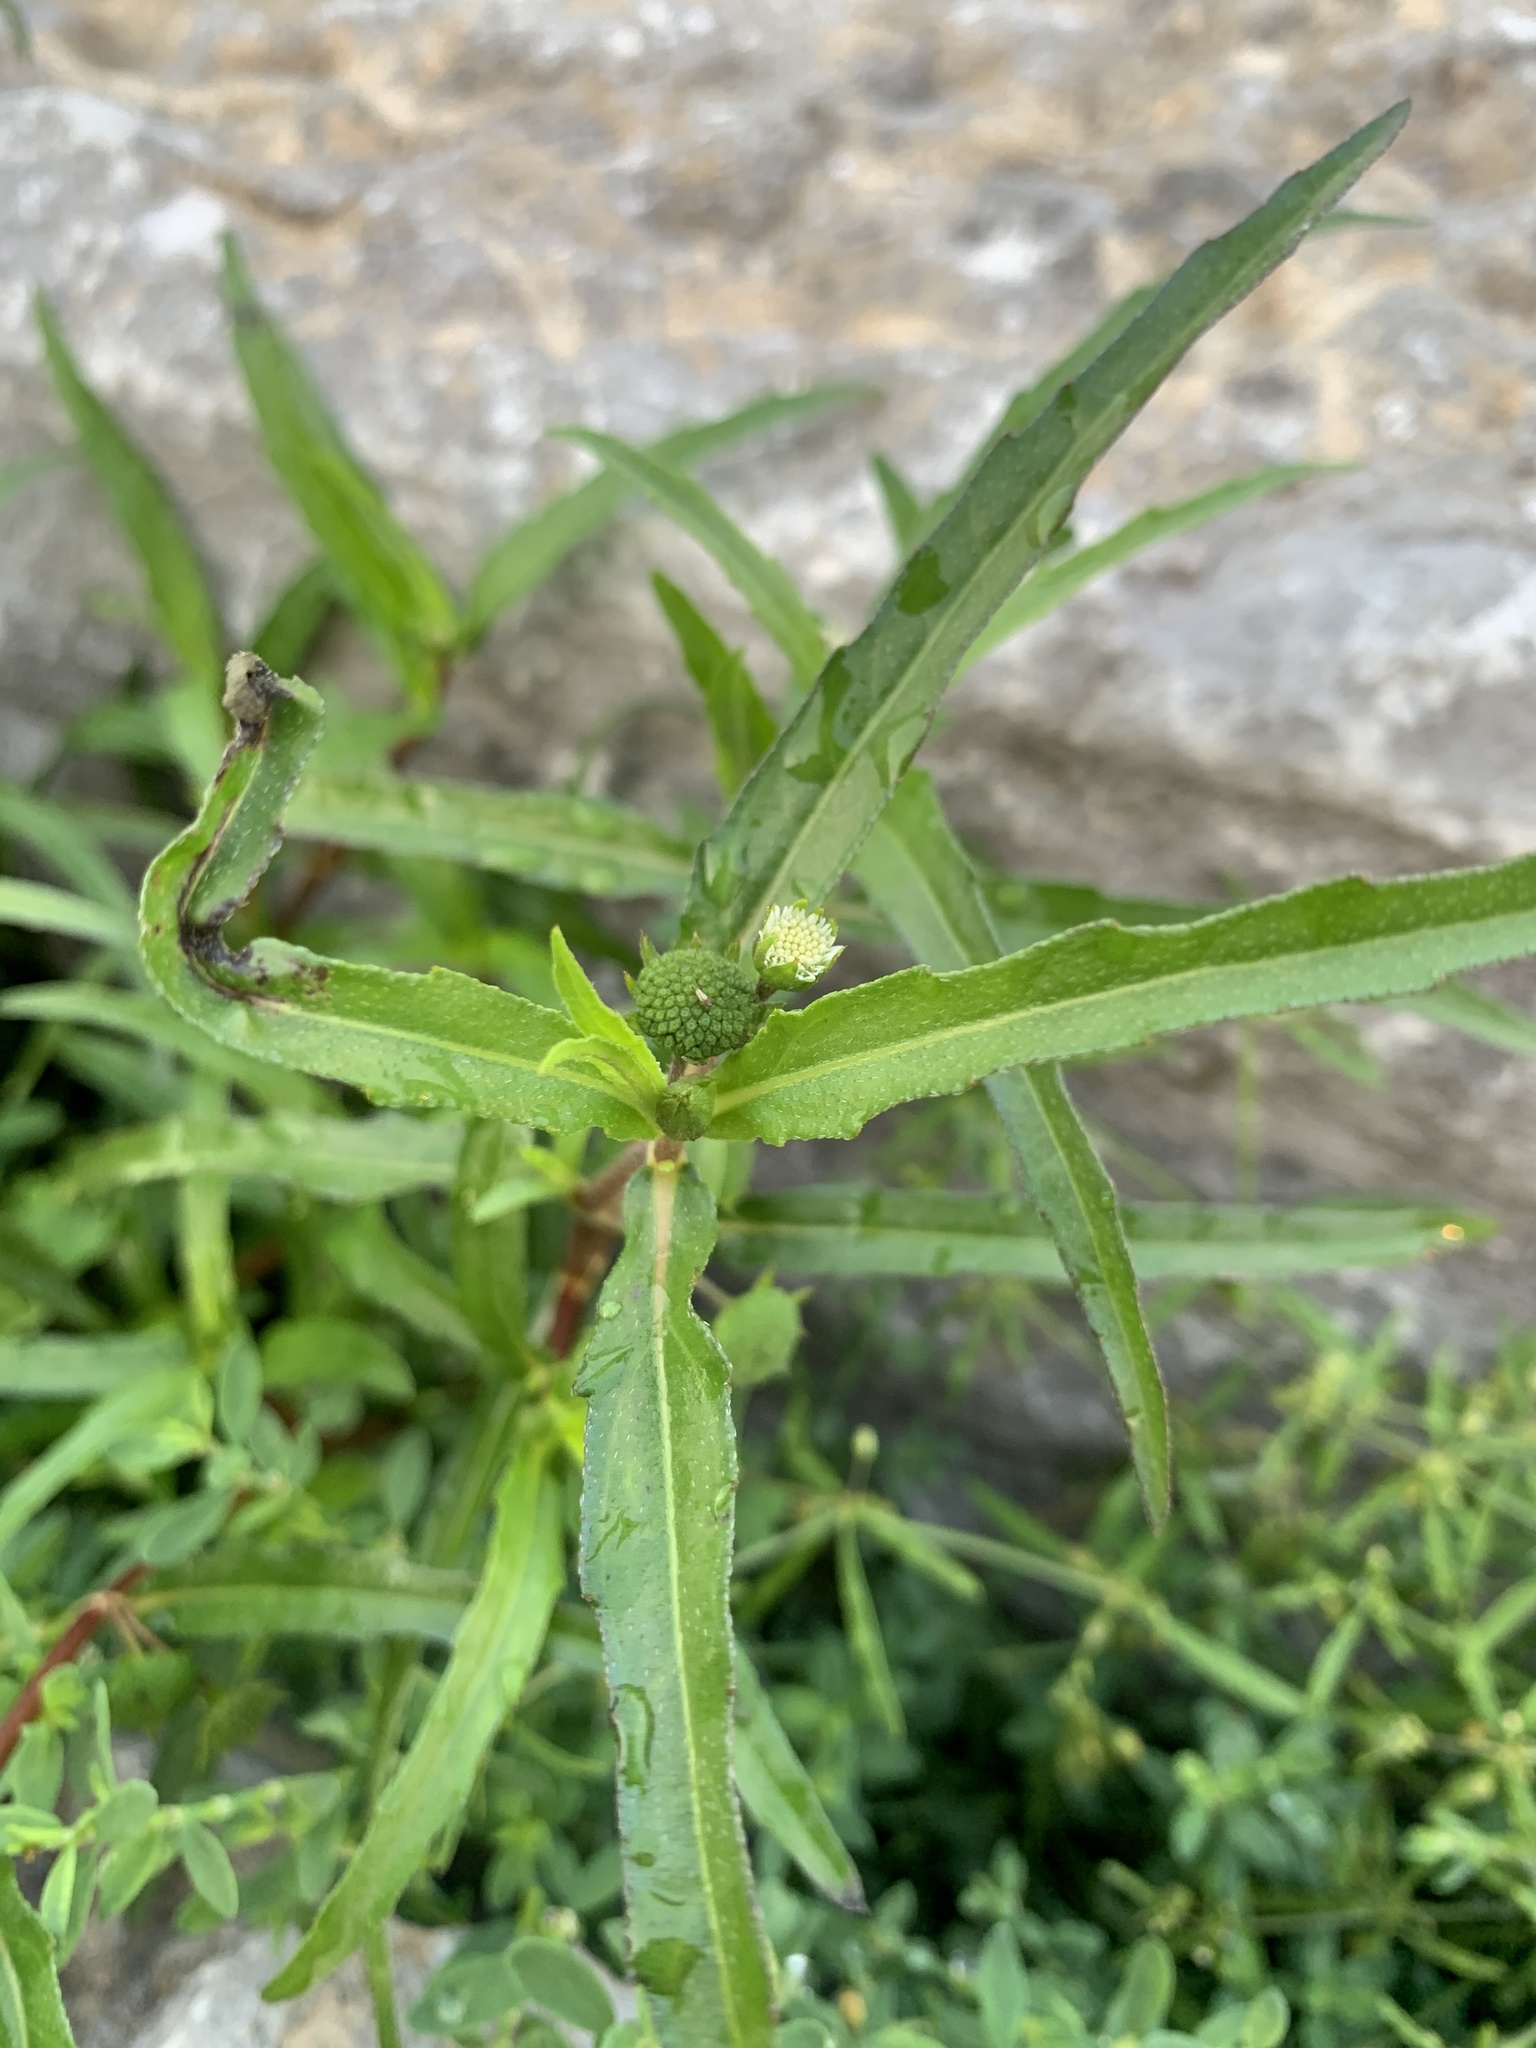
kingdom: Plantae
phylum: Tracheophyta
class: Magnoliopsida
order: Asterales
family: Asteraceae
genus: Eclipta
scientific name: Eclipta prostrata
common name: False daisy
